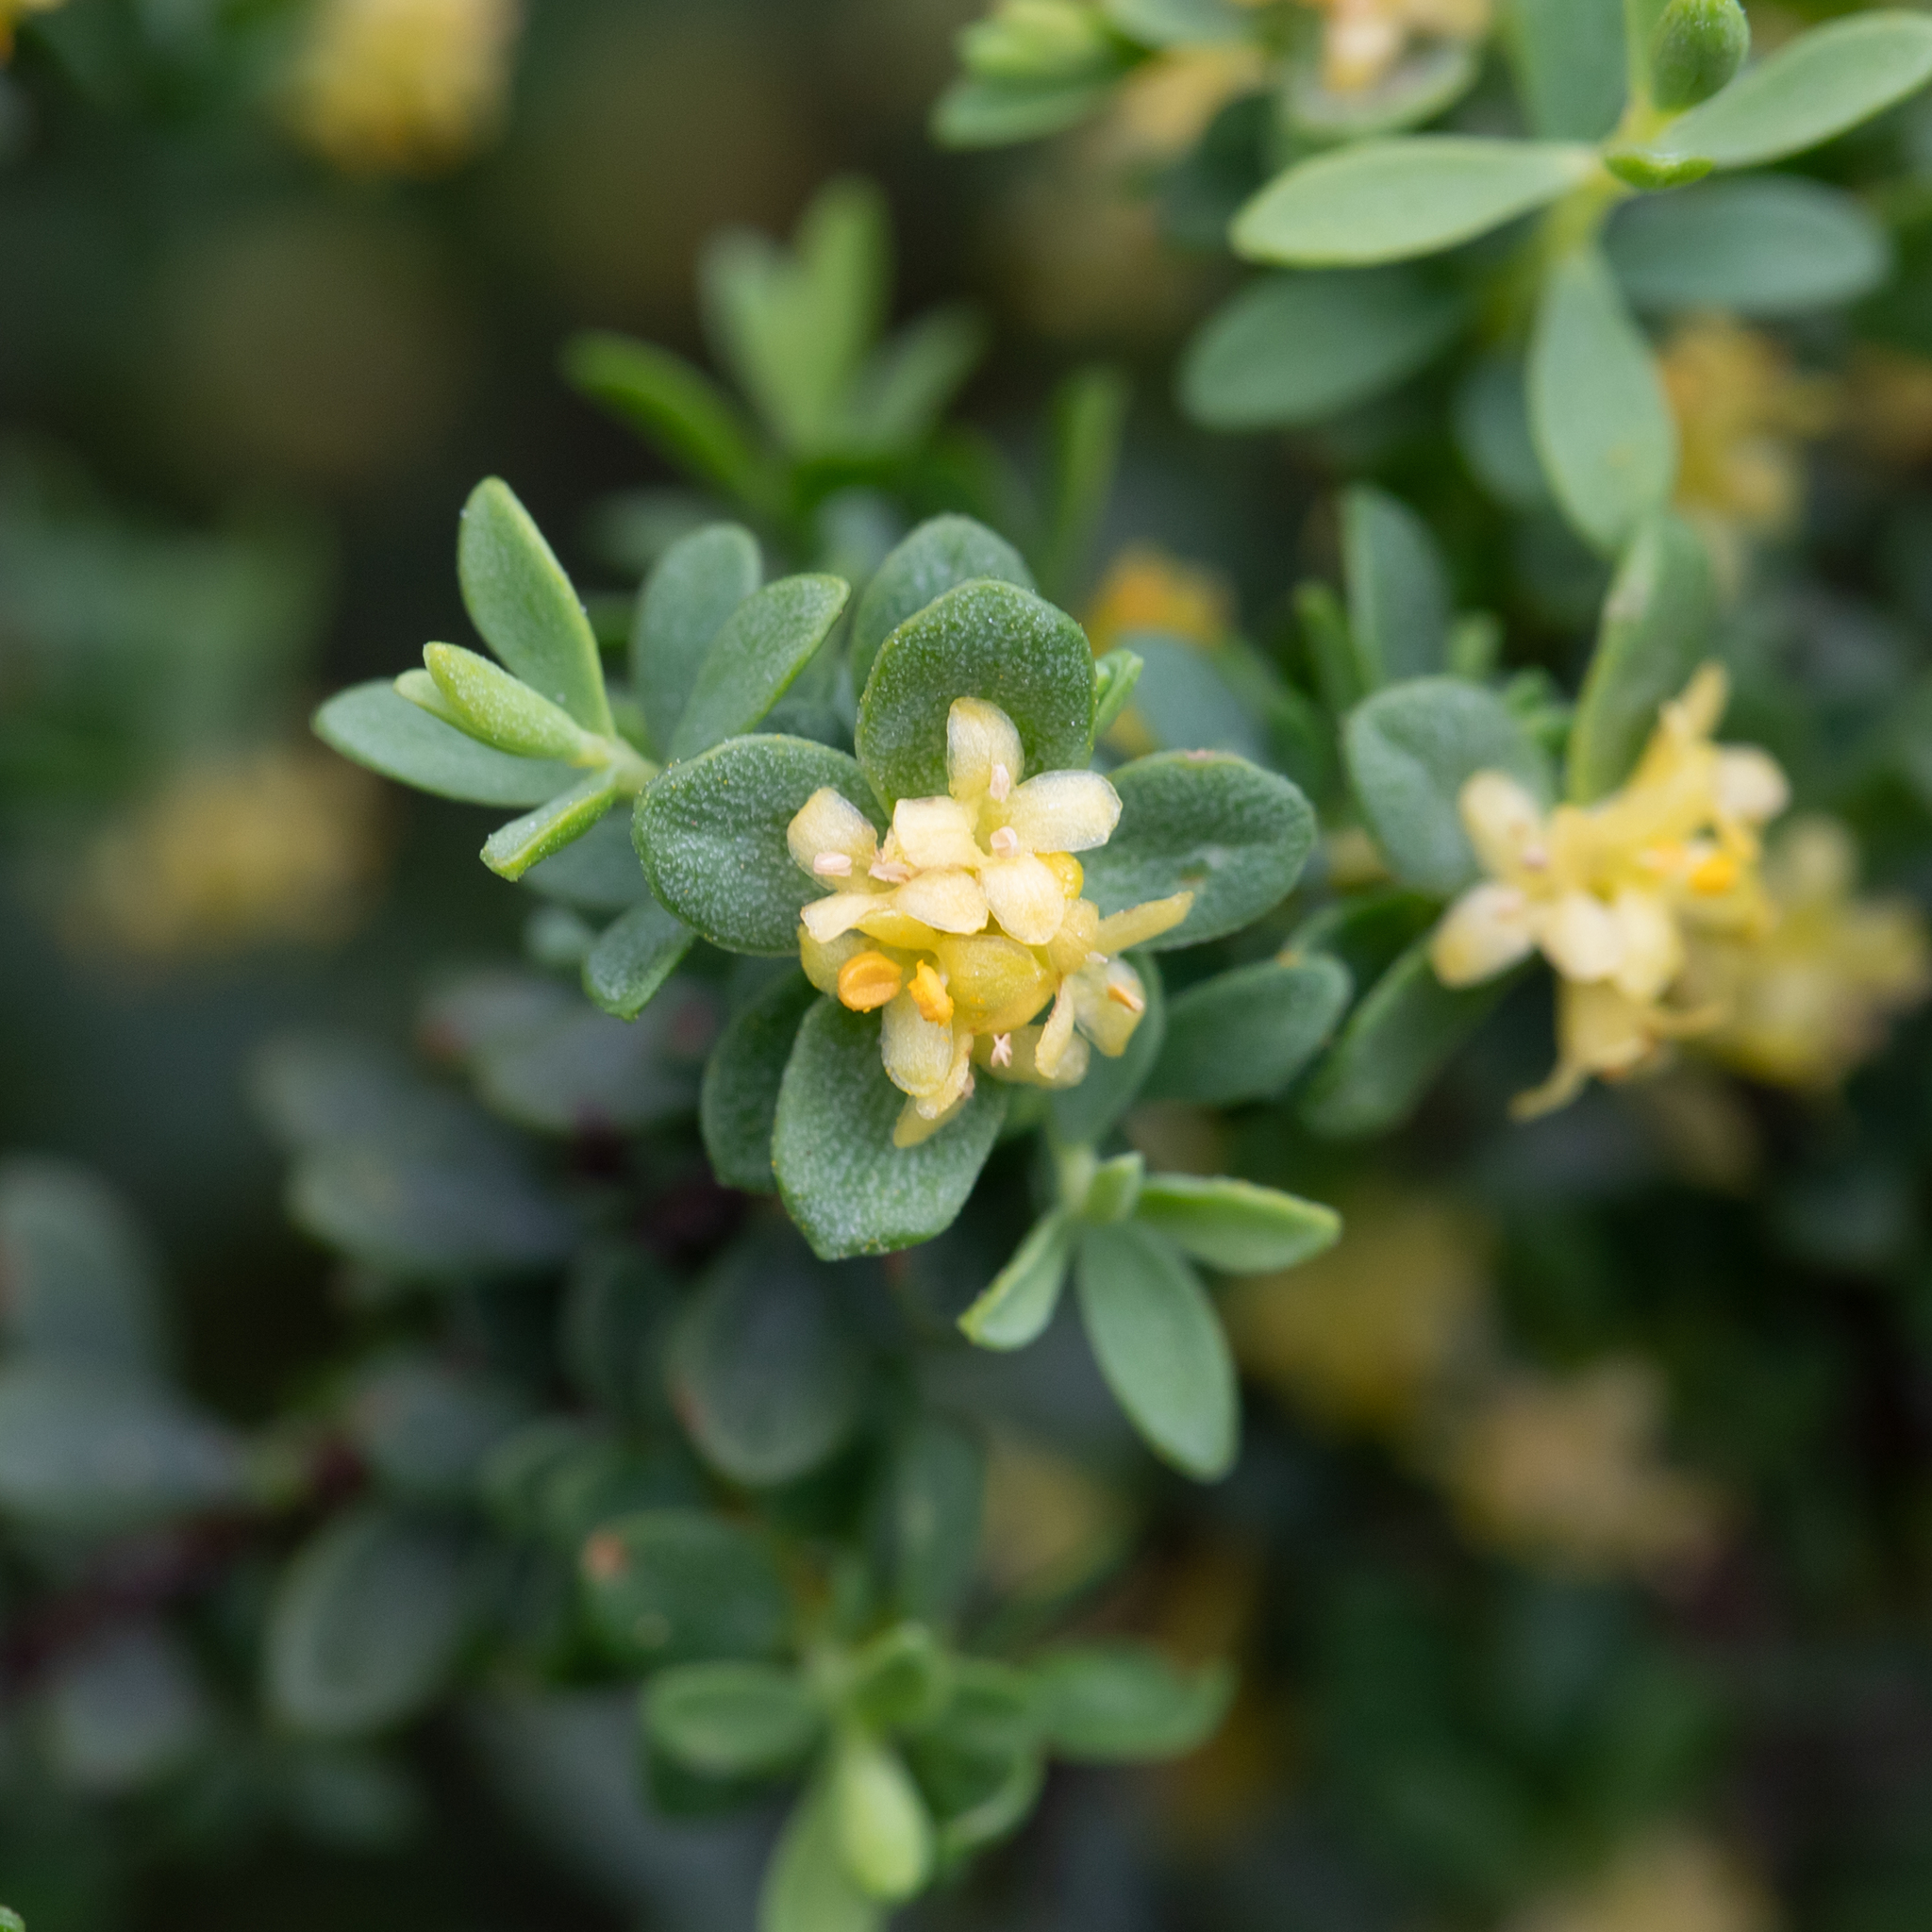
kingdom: Plantae
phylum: Tracheophyta
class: Magnoliopsida
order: Malvales
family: Thymelaeaceae
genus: Pimelea
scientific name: Pimelea serpyllifolia
